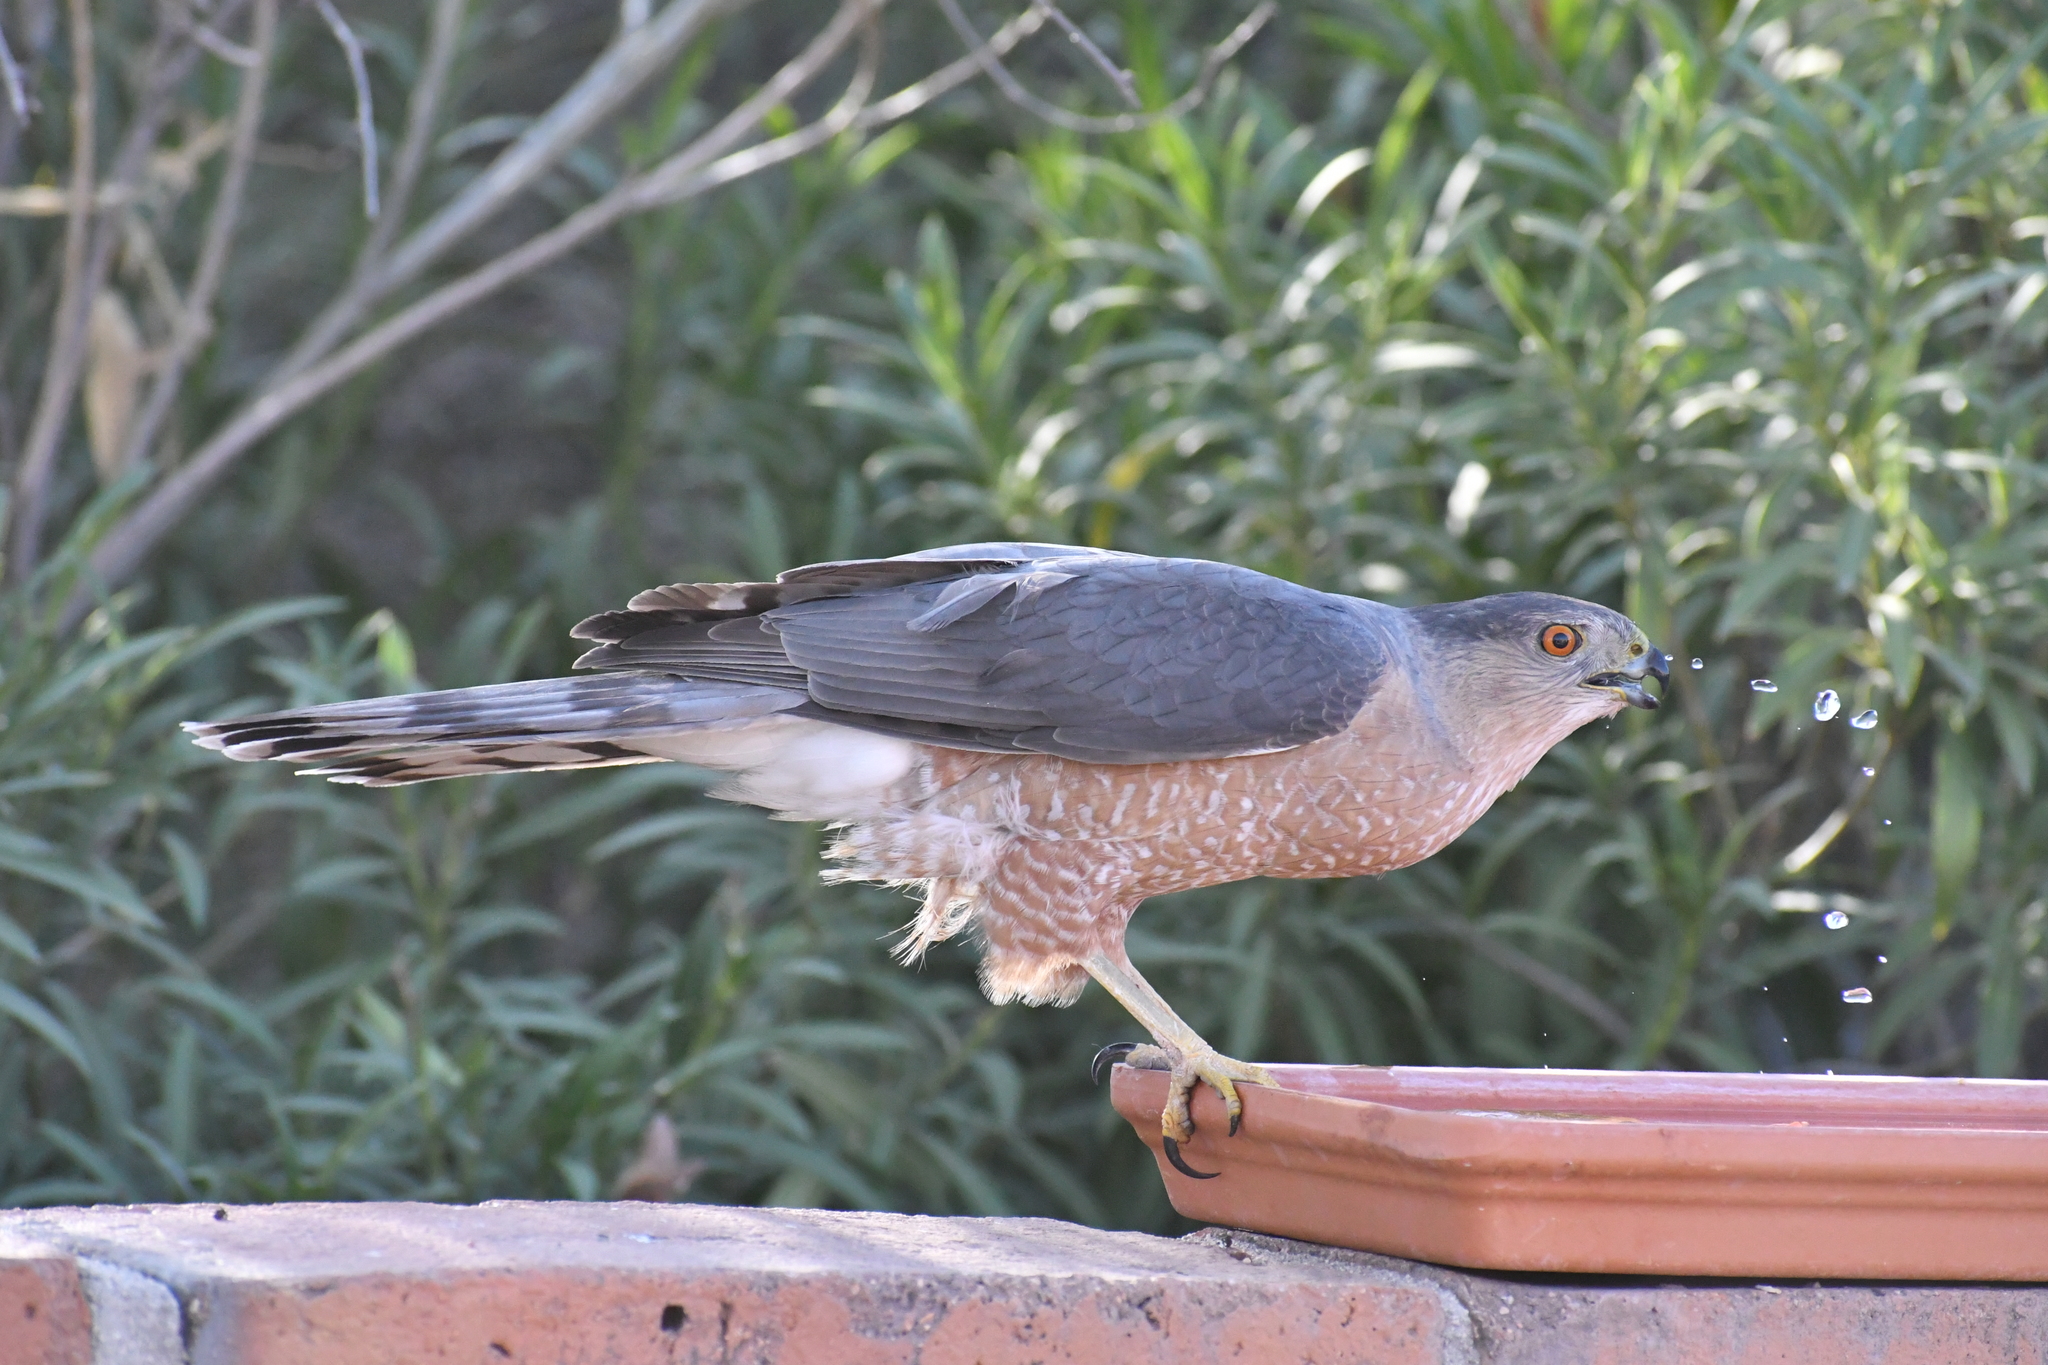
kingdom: Animalia
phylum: Chordata
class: Aves
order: Accipitriformes
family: Accipitridae
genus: Accipiter
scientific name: Accipiter cooperii
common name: Cooper's hawk
